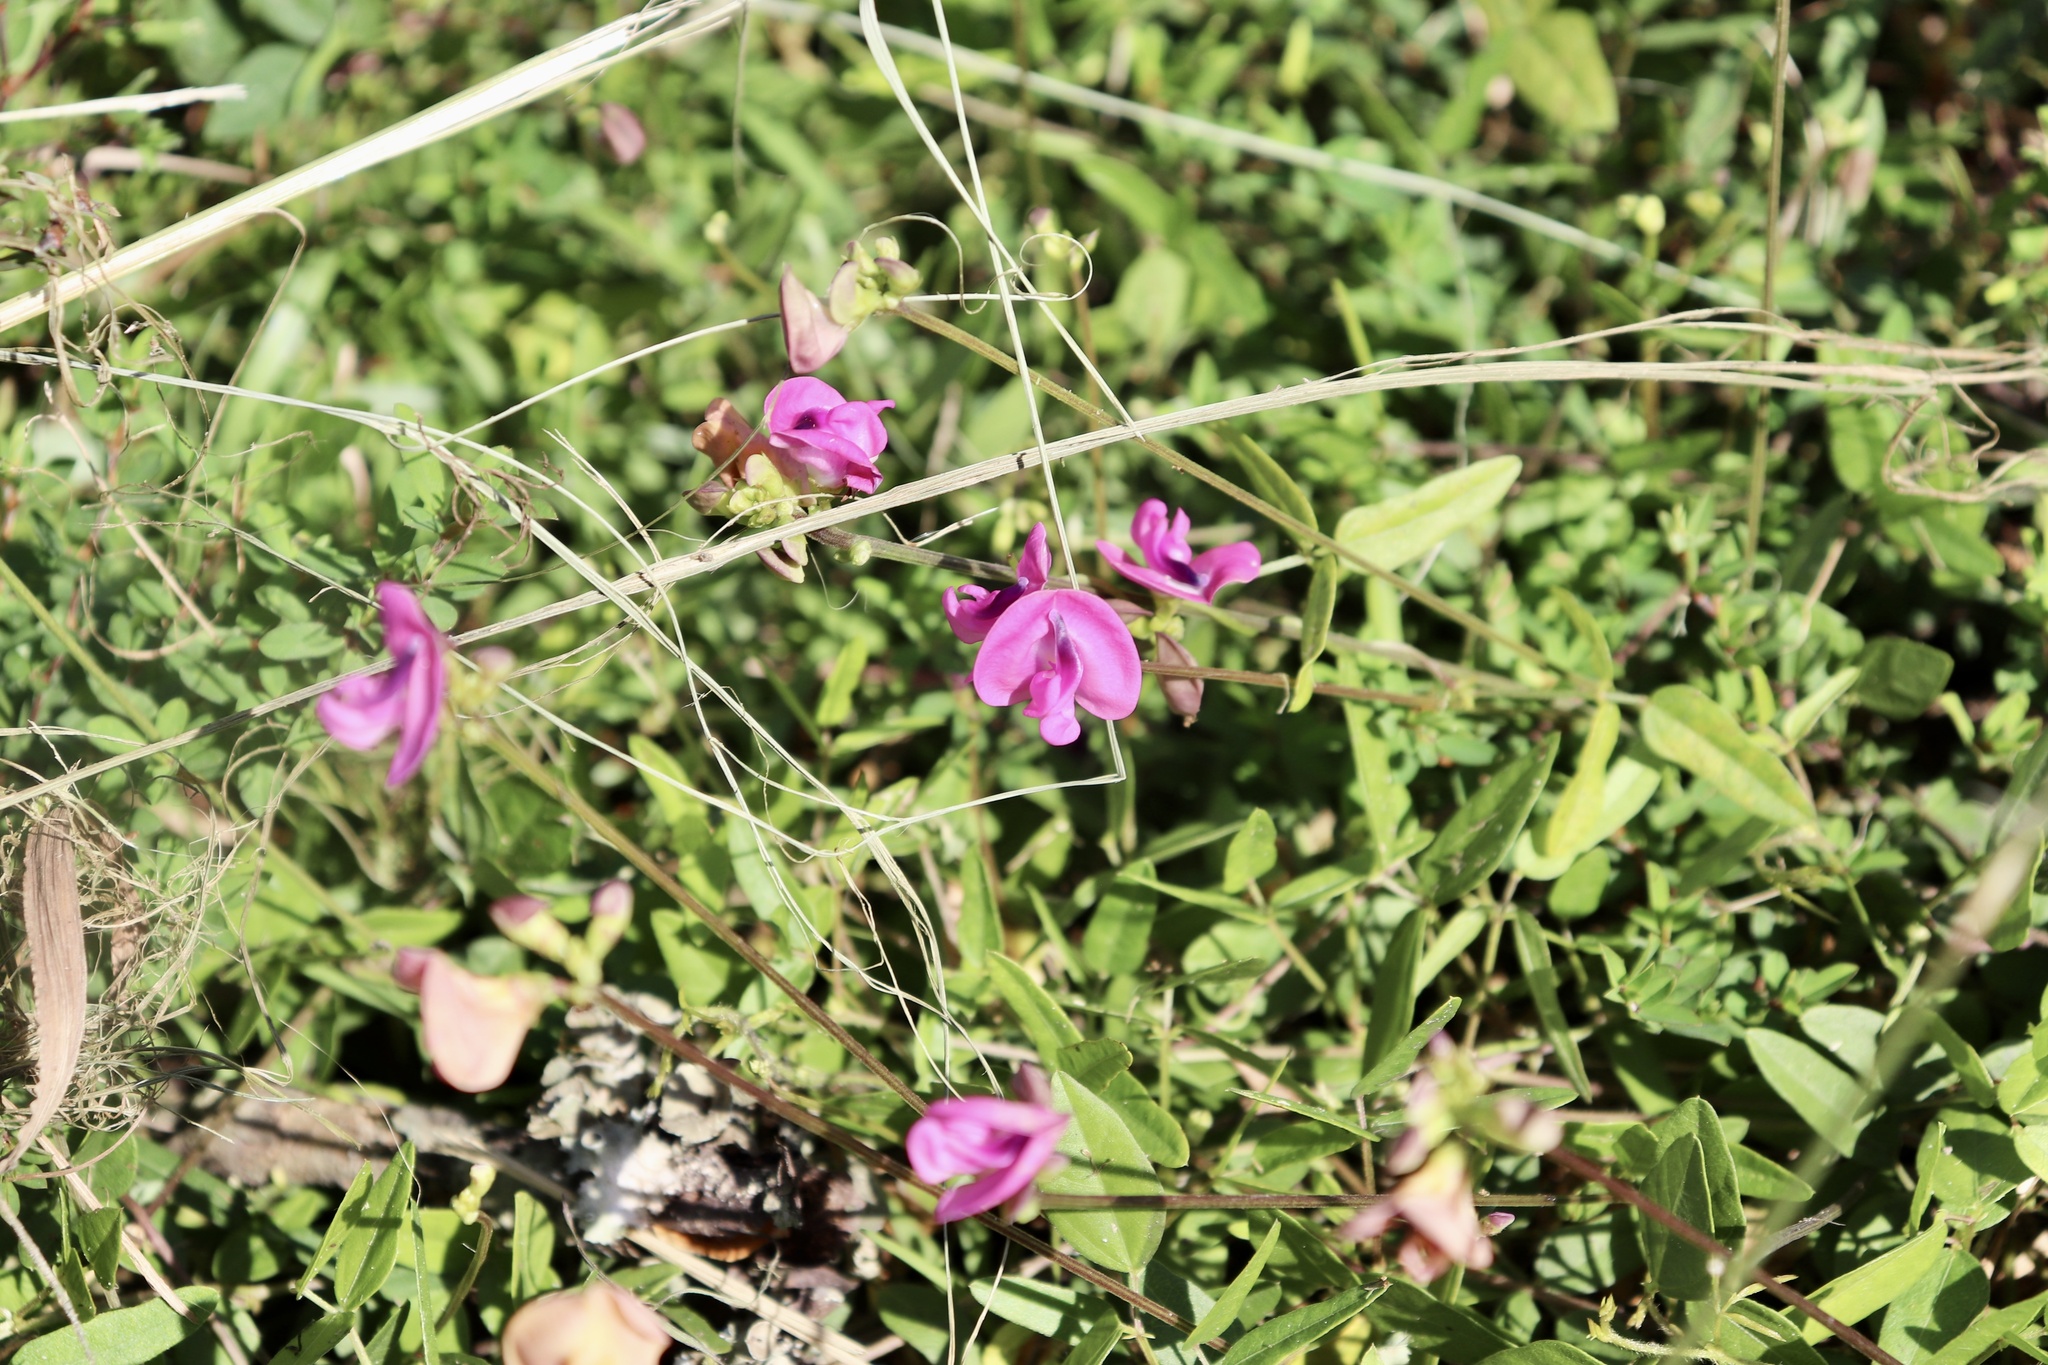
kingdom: Plantae
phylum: Tracheophyta
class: Magnoliopsida
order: Fabales
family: Fabaceae
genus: Strophostyles
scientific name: Strophostyles umbellata
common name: Perennial wild bean
